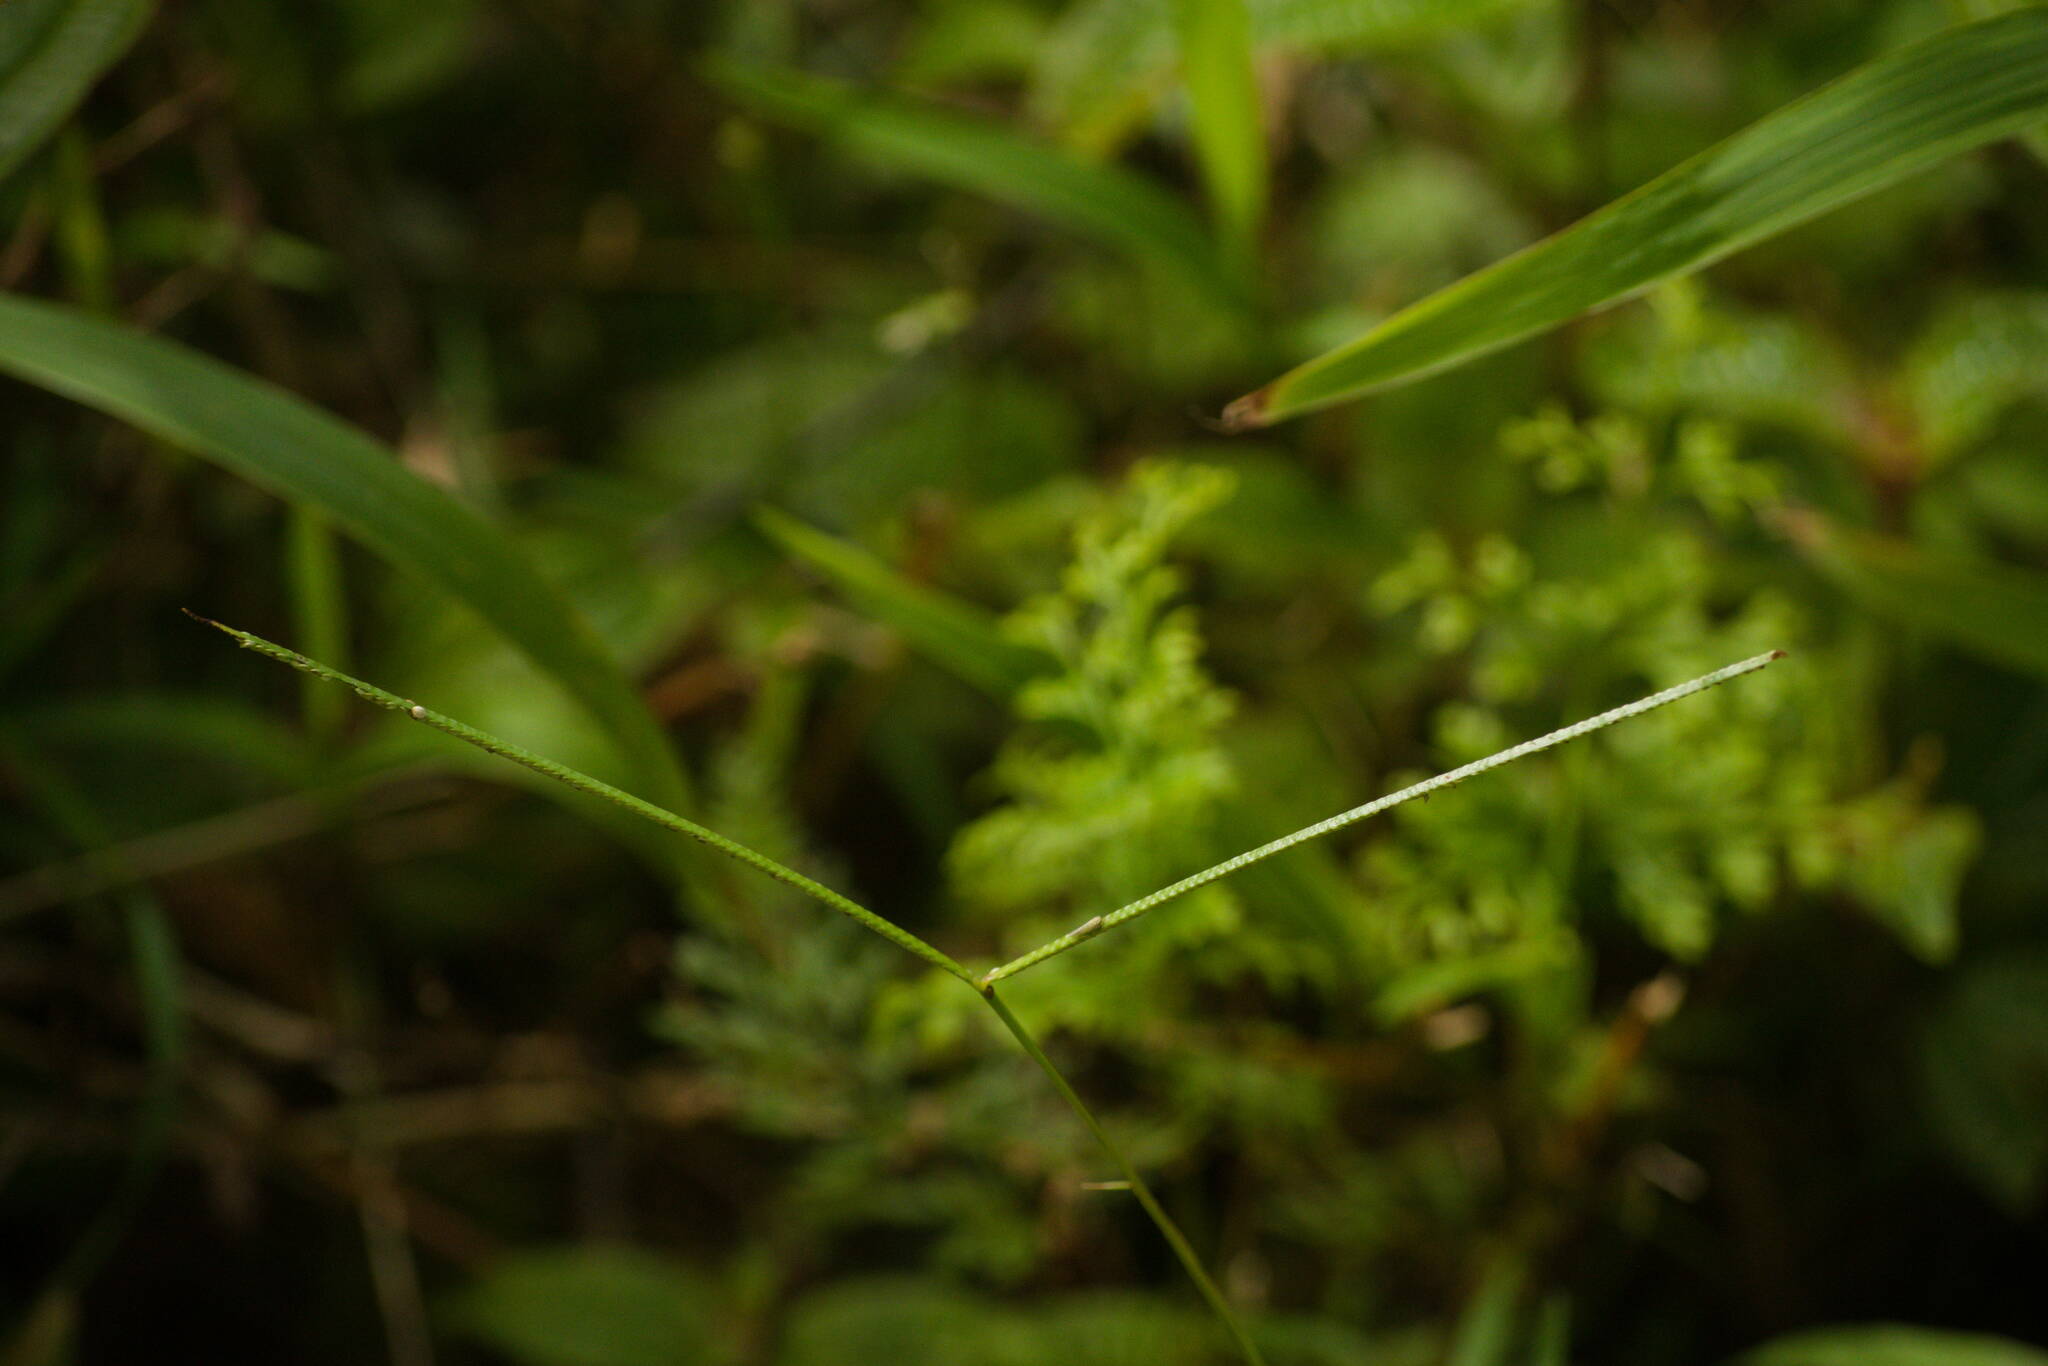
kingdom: Plantae
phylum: Tracheophyta
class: Liliopsida
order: Poales
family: Poaceae
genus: Paspalum
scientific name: Paspalum conjugatum
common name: Hilograss
